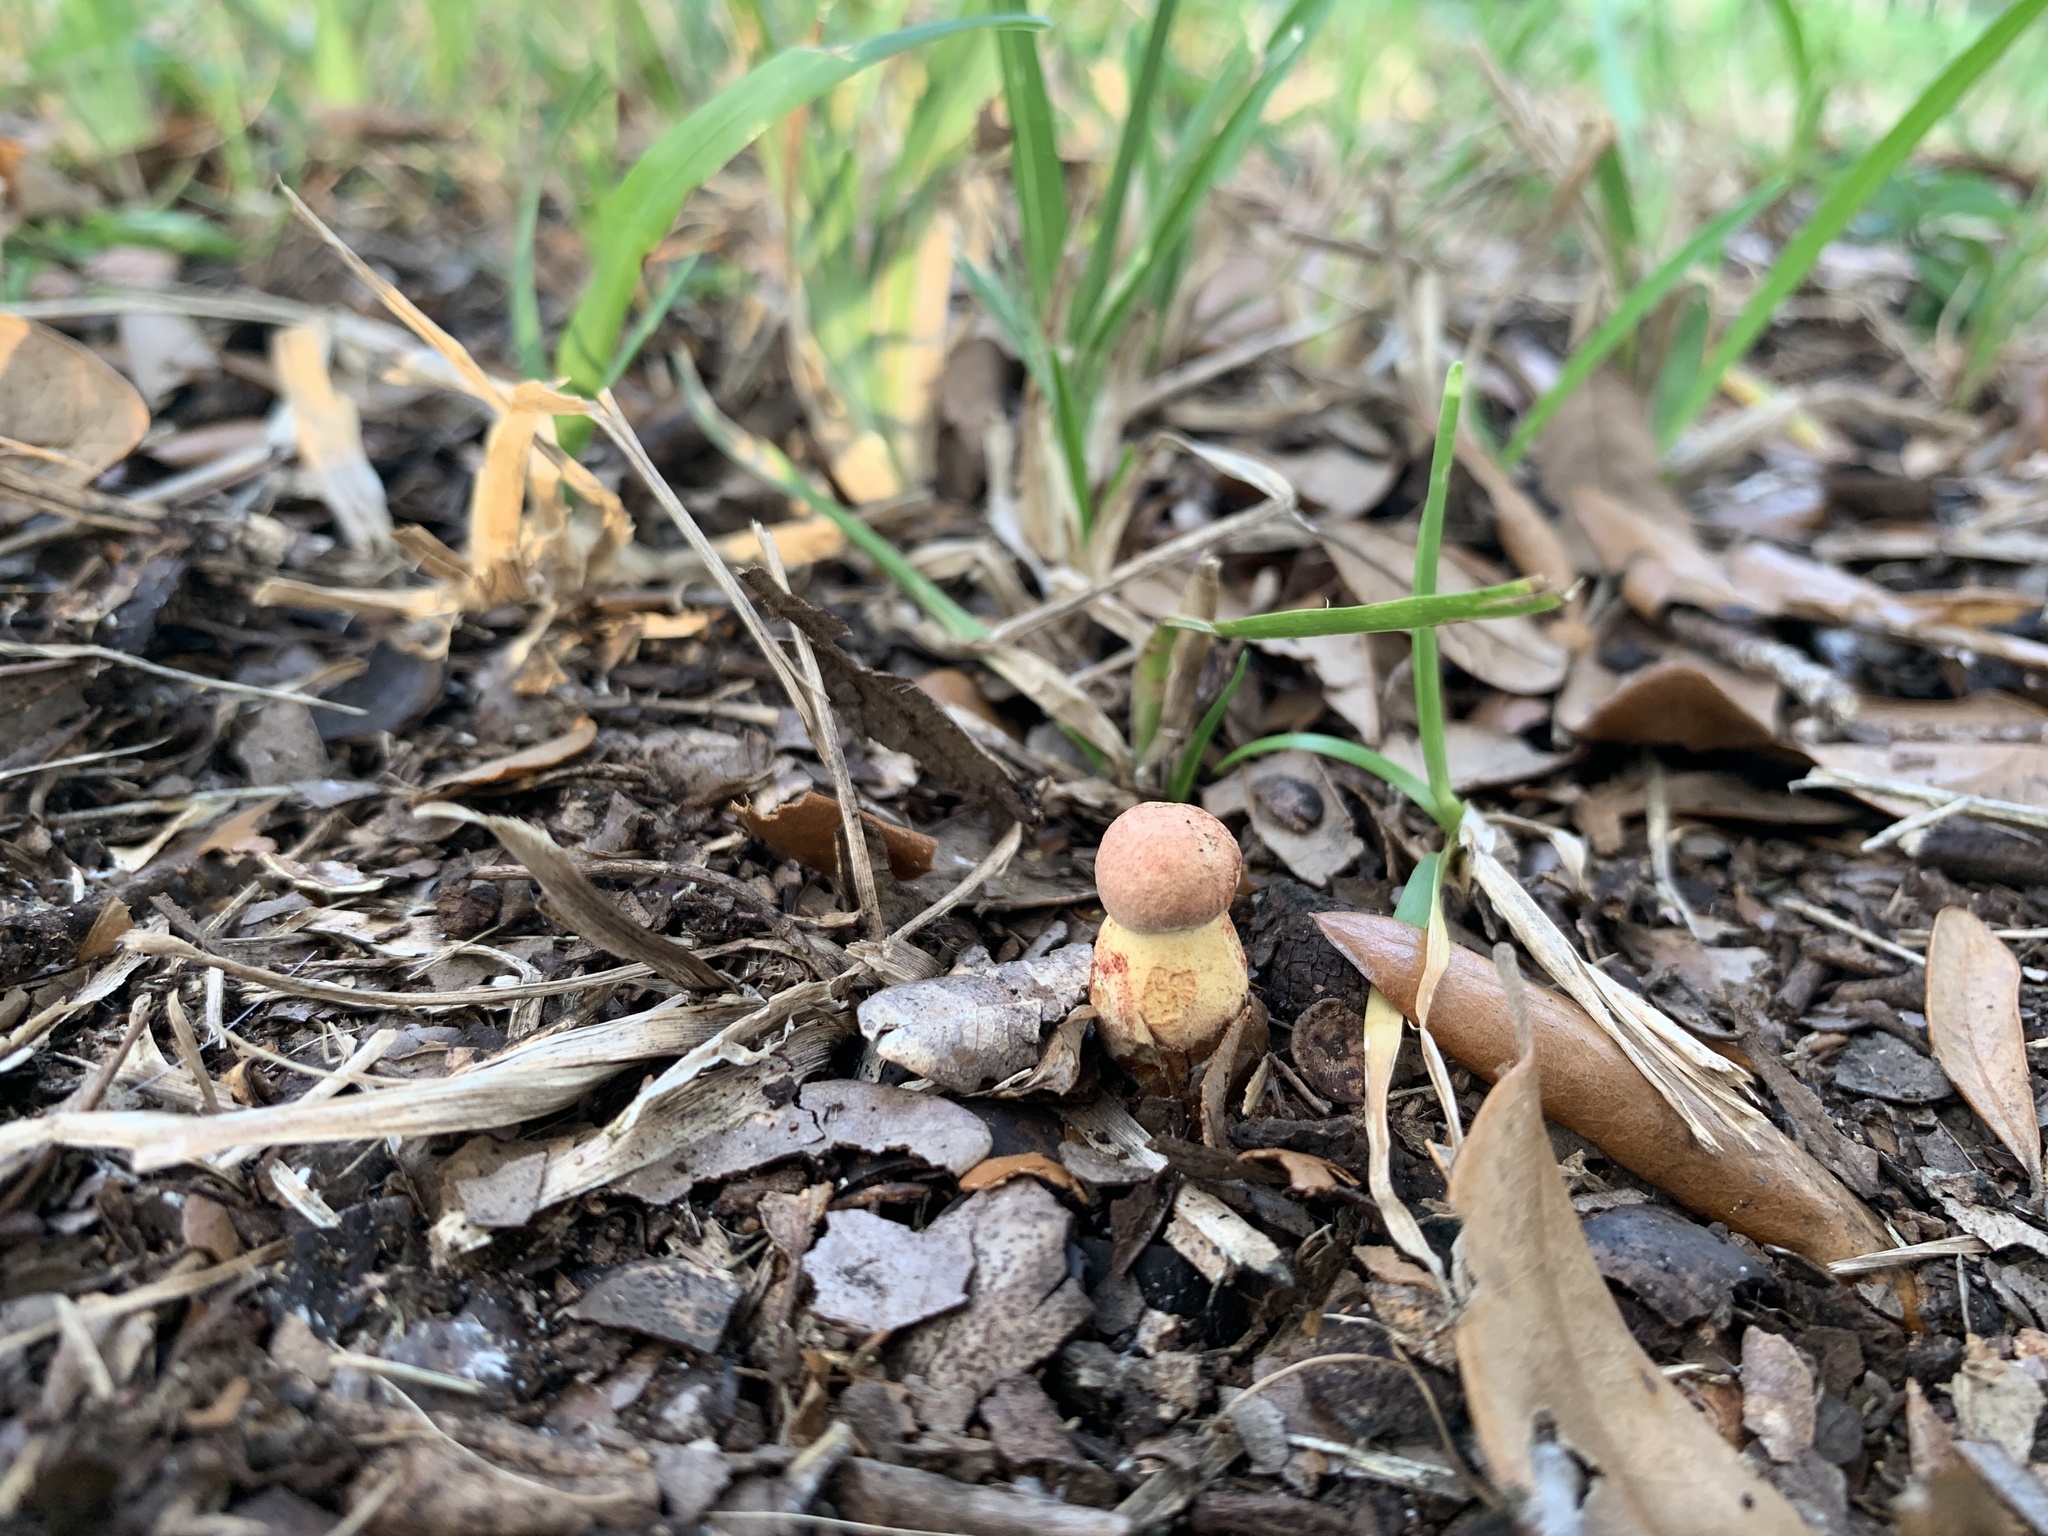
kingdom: Fungi
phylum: Basidiomycota
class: Agaricomycetes
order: Boletales
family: Boletaceae
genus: Butyriboletus
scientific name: Butyriboletus floridanus
